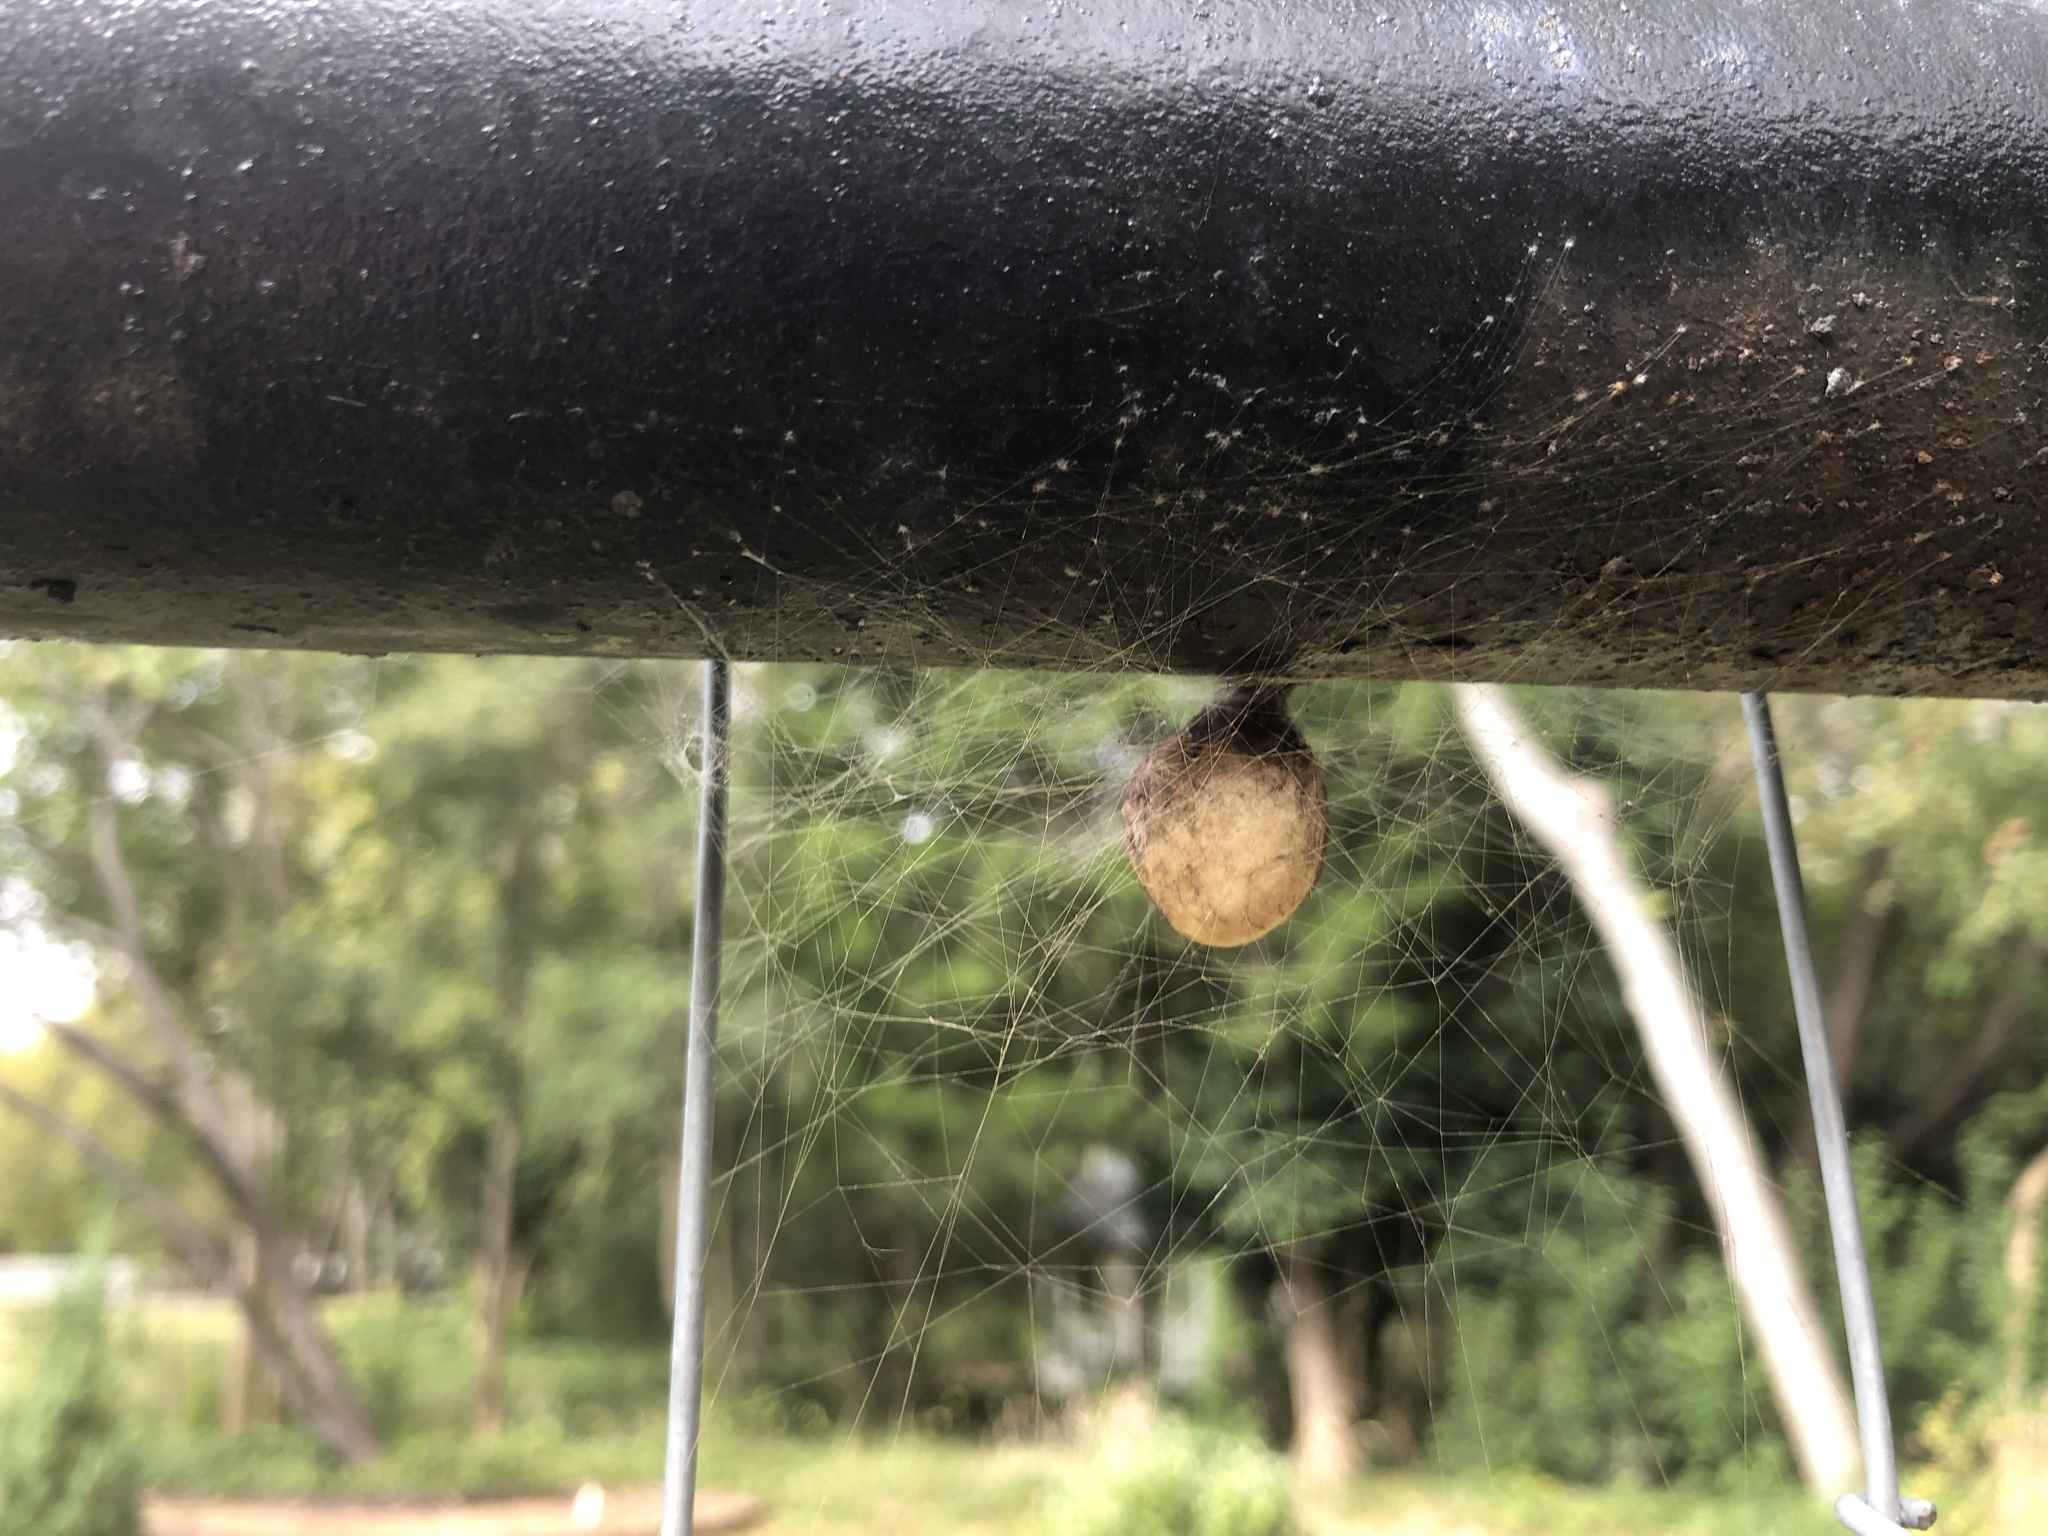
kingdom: Animalia
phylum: Arthropoda
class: Arachnida
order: Araneae
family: Araneidae
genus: Argiope
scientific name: Argiope aurantia
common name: Orb weavers
